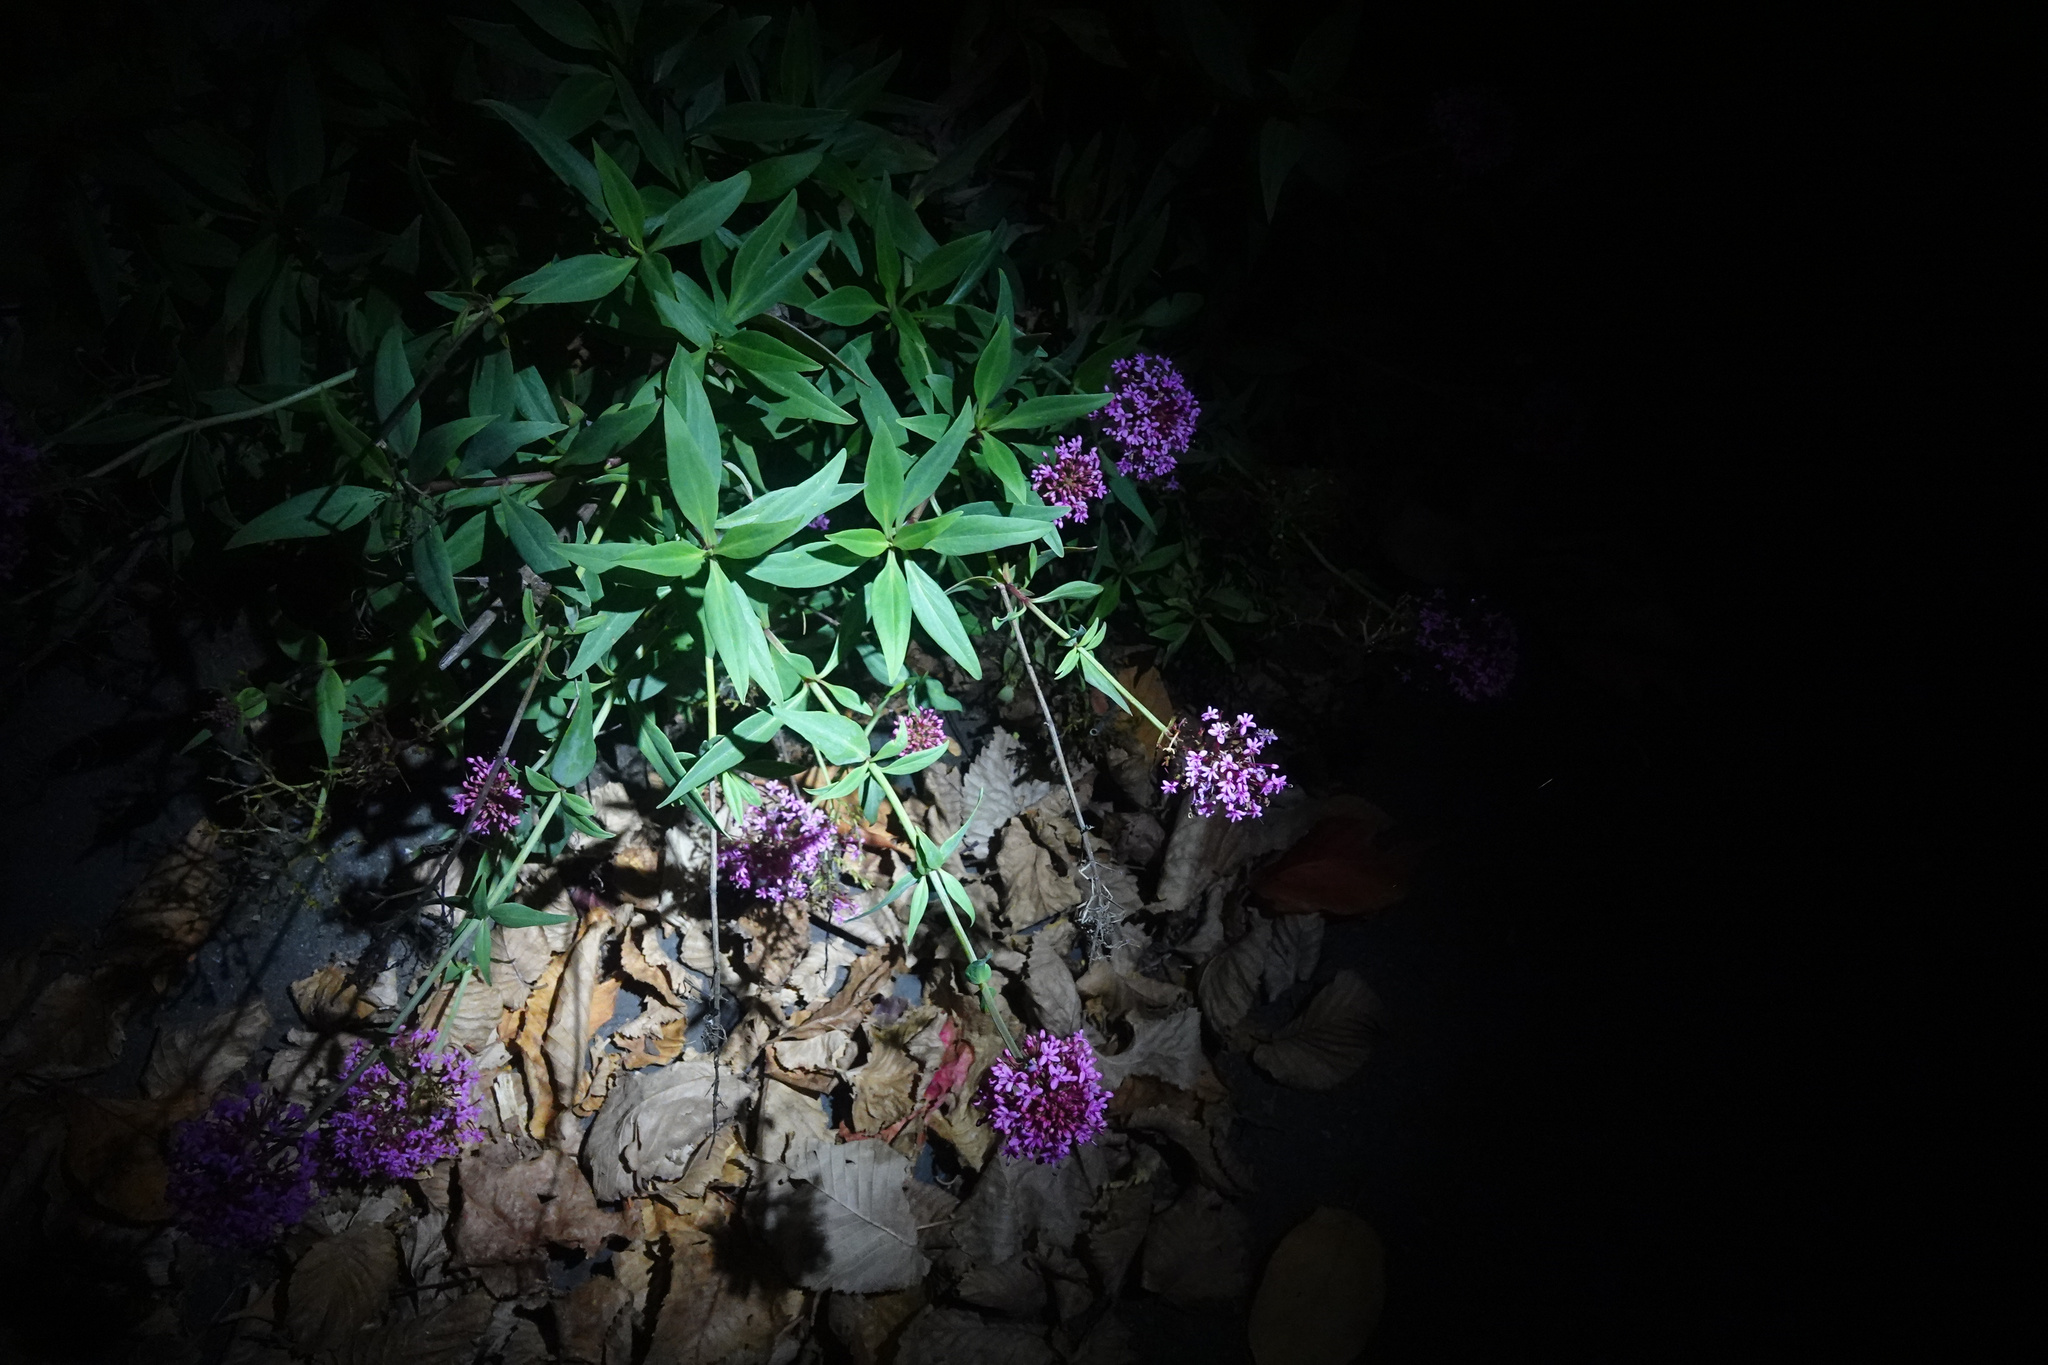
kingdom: Plantae
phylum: Tracheophyta
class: Magnoliopsida
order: Dipsacales
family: Caprifoliaceae
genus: Centranthus
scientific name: Centranthus ruber
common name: Red valerian
